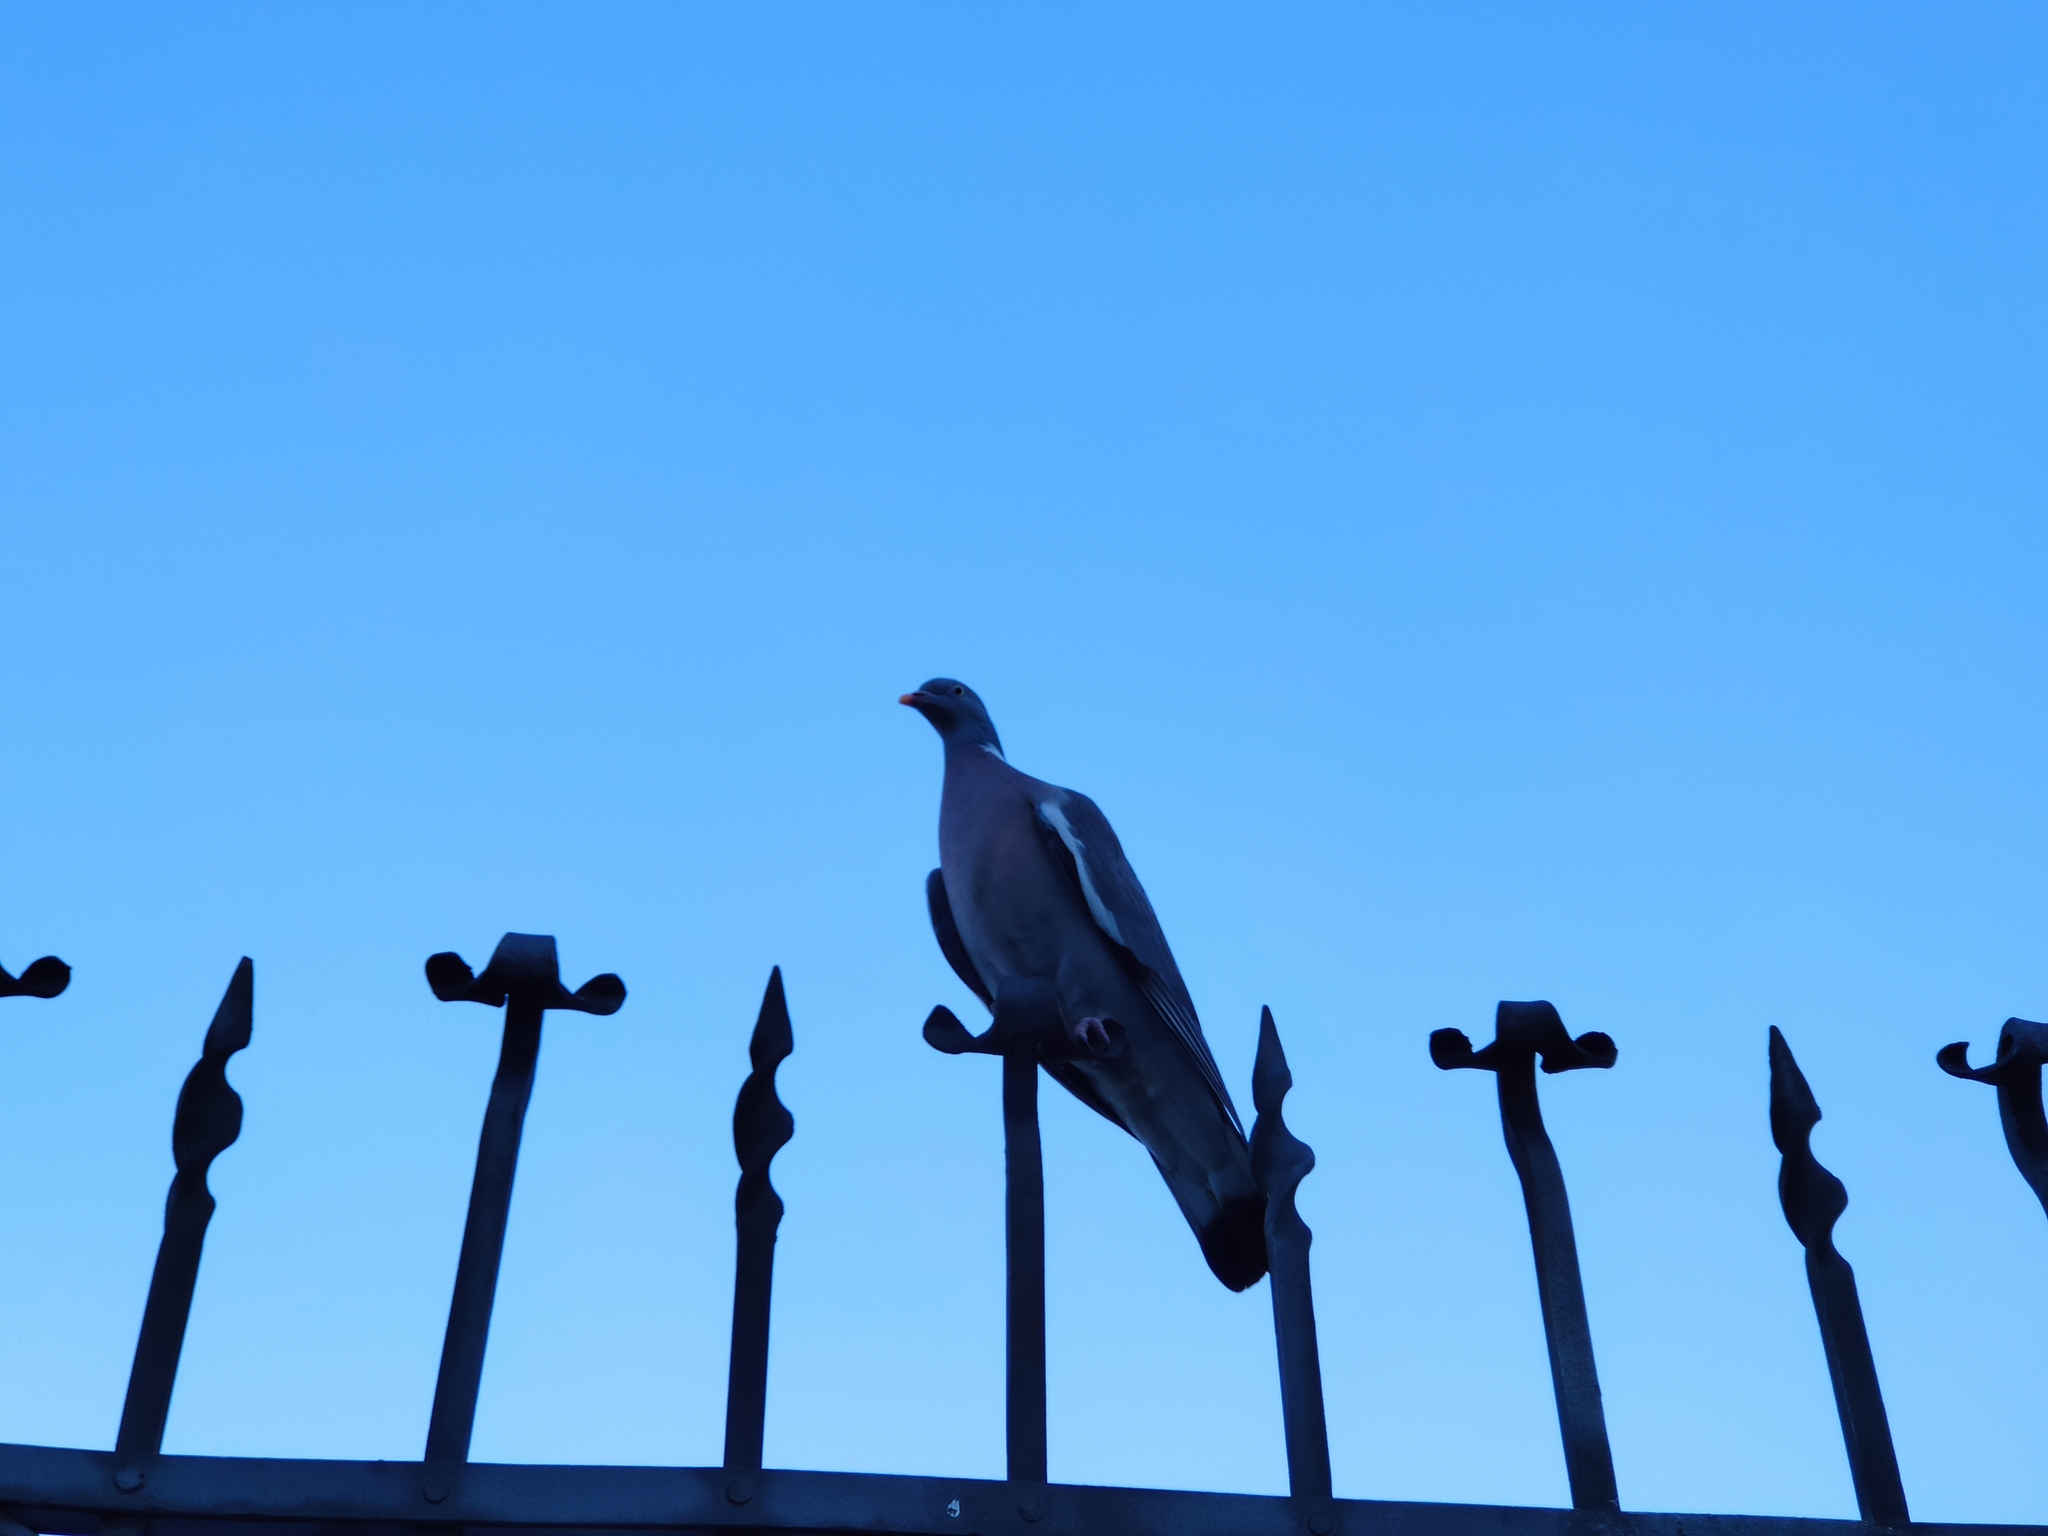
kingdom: Animalia
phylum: Chordata
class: Aves
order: Columbiformes
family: Columbidae
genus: Columba
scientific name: Columba palumbus
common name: Common wood pigeon
